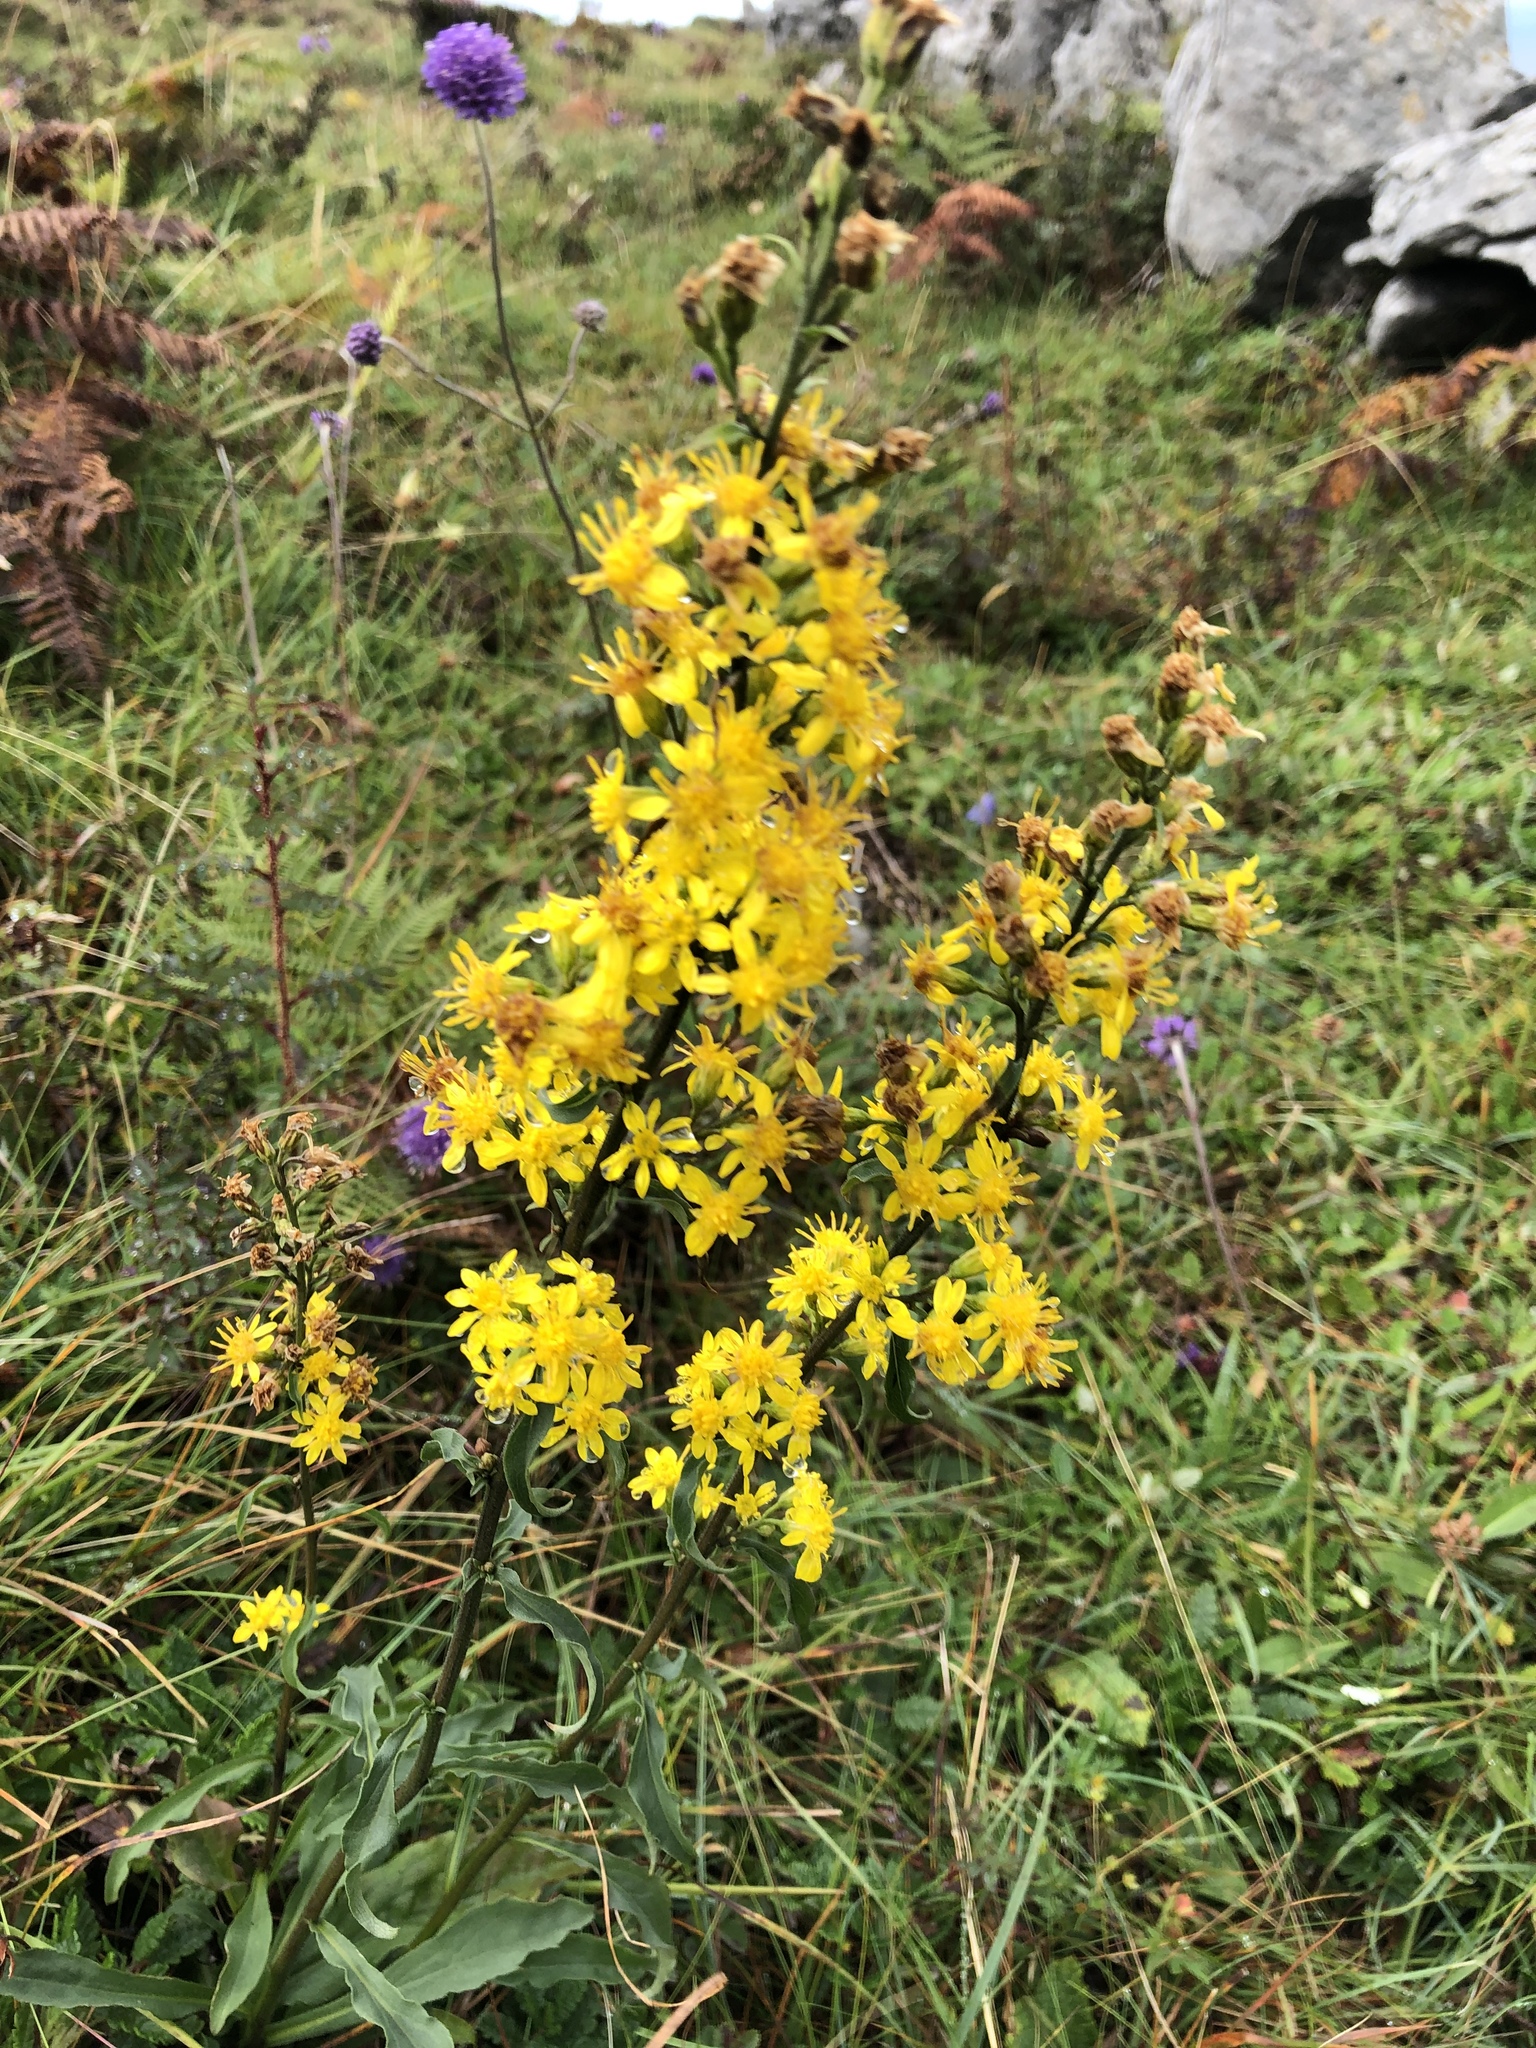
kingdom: Plantae
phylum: Tracheophyta
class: Magnoliopsida
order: Asterales
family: Asteraceae
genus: Solidago
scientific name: Solidago virgaurea
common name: Goldenrod
